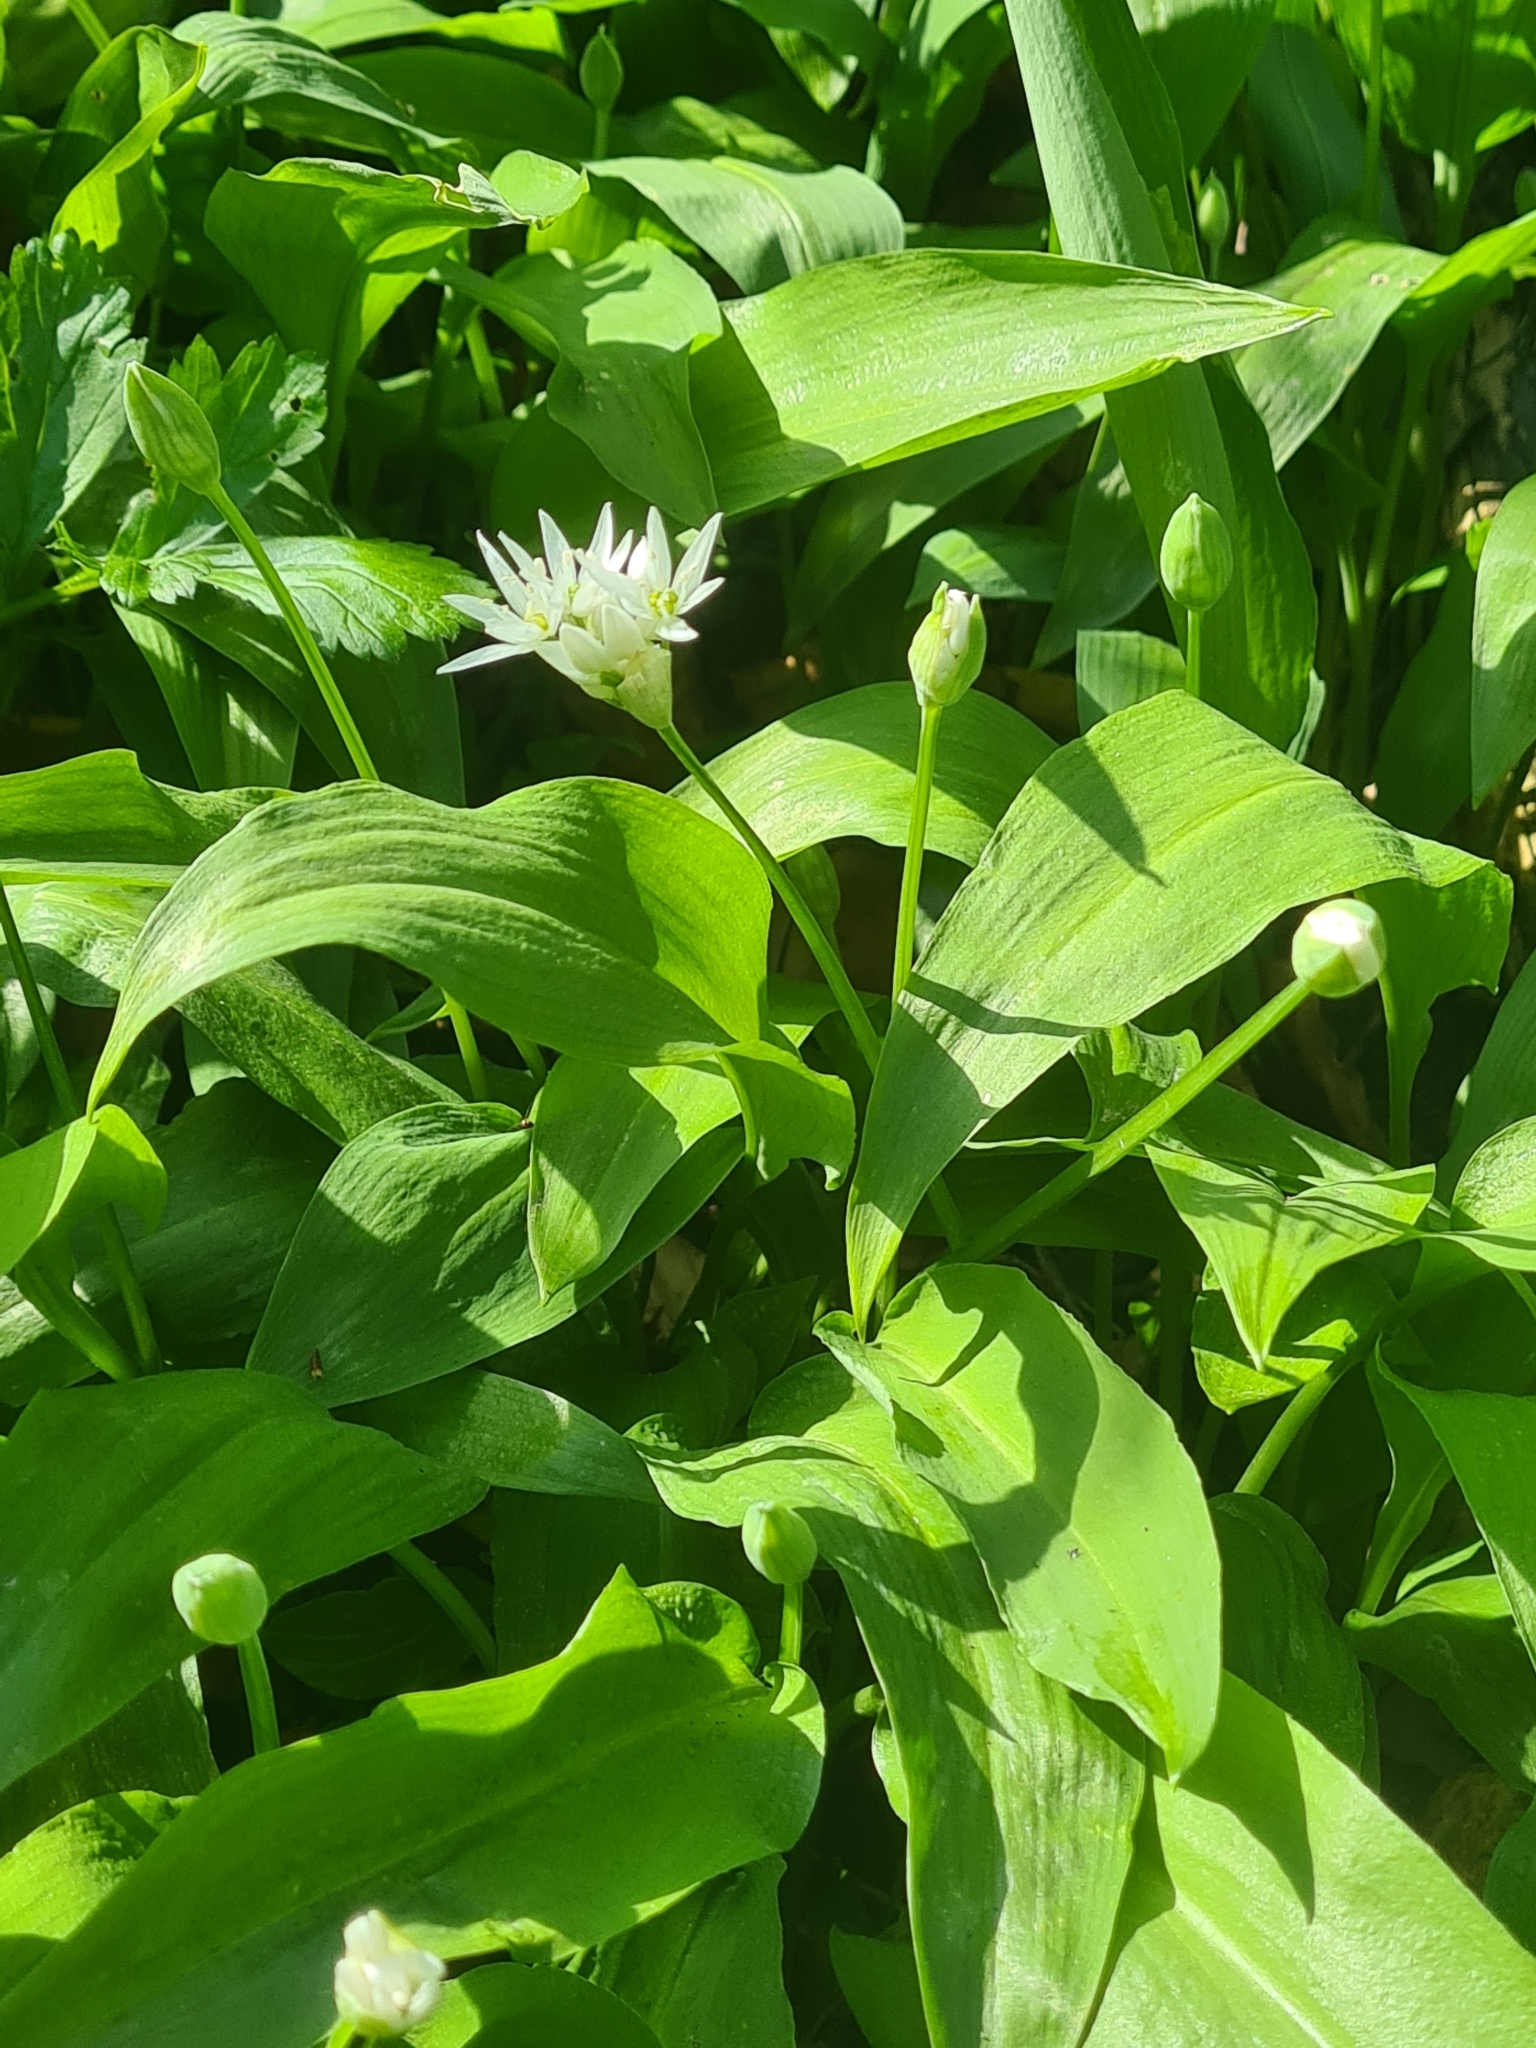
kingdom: Plantae
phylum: Tracheophyta
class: Liliopsida
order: Asparagales
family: Amaryllidaceae
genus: Allium
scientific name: Allium ursinum
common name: Ramsons
